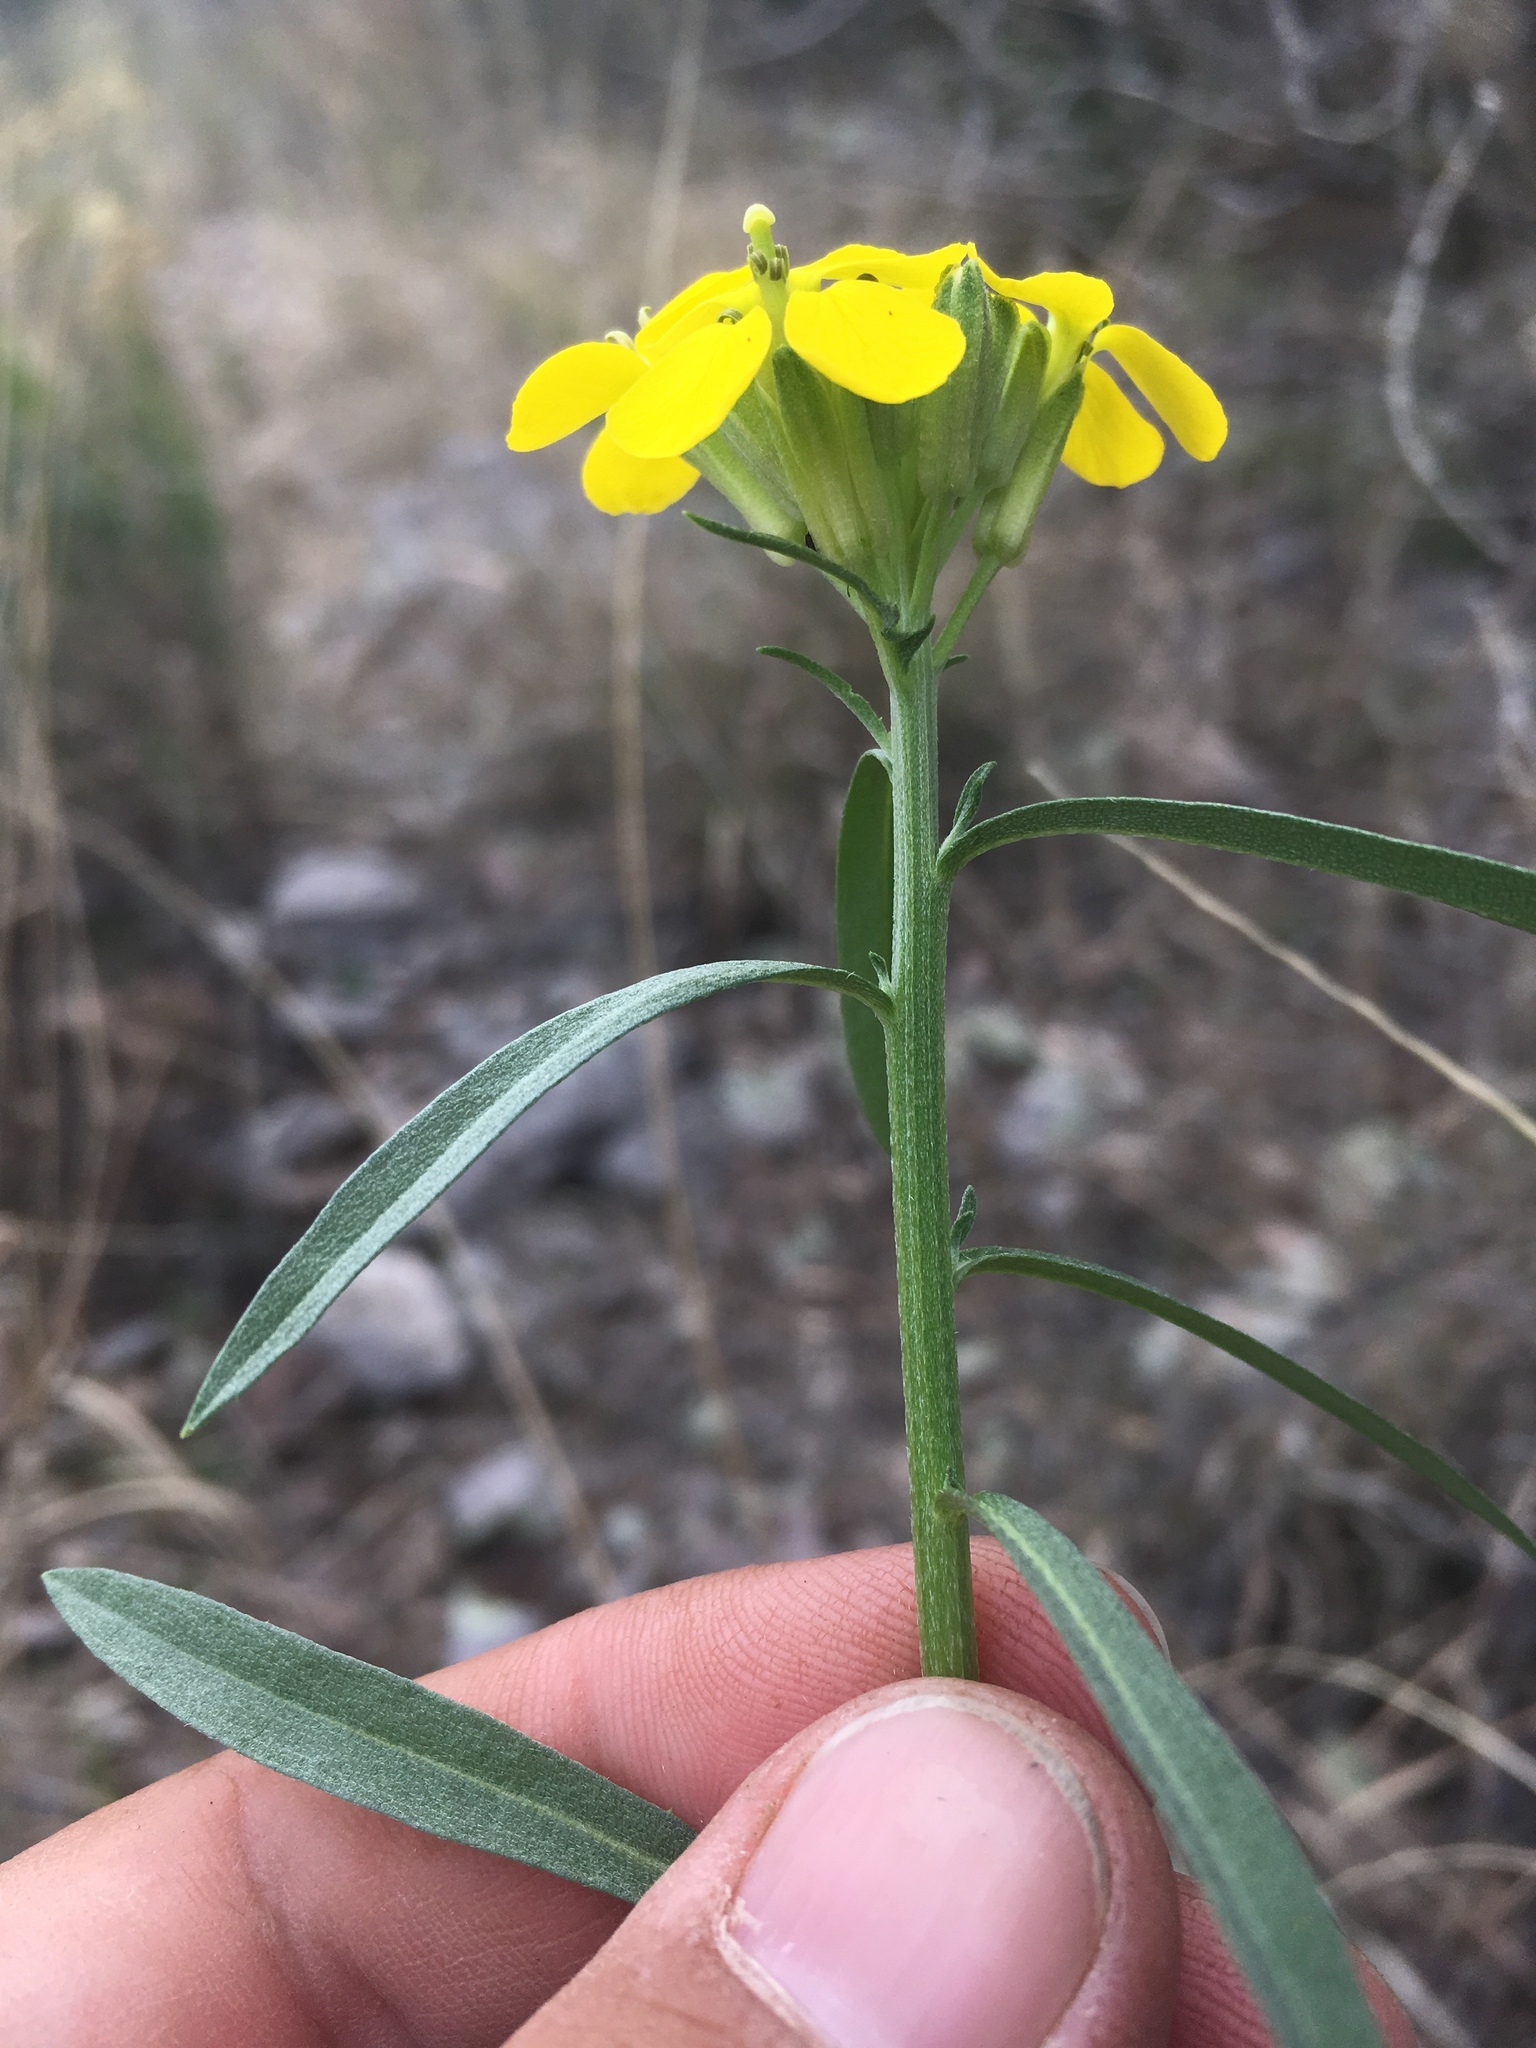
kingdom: Plantae
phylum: Tracheophyta
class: Magnoliopsida
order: Brassicales
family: Brassicaceae
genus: Erysimum
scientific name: Erysimum capitatum
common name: Western wallflower
